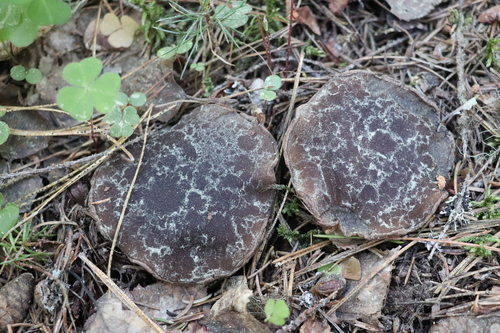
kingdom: Fungi
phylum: Ascomycota
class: Pezizomycetes
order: Pezizales
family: Sarcosomataceae
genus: Sarcosoma
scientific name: Sarcosoma globosum
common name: Charred-pancake cup
